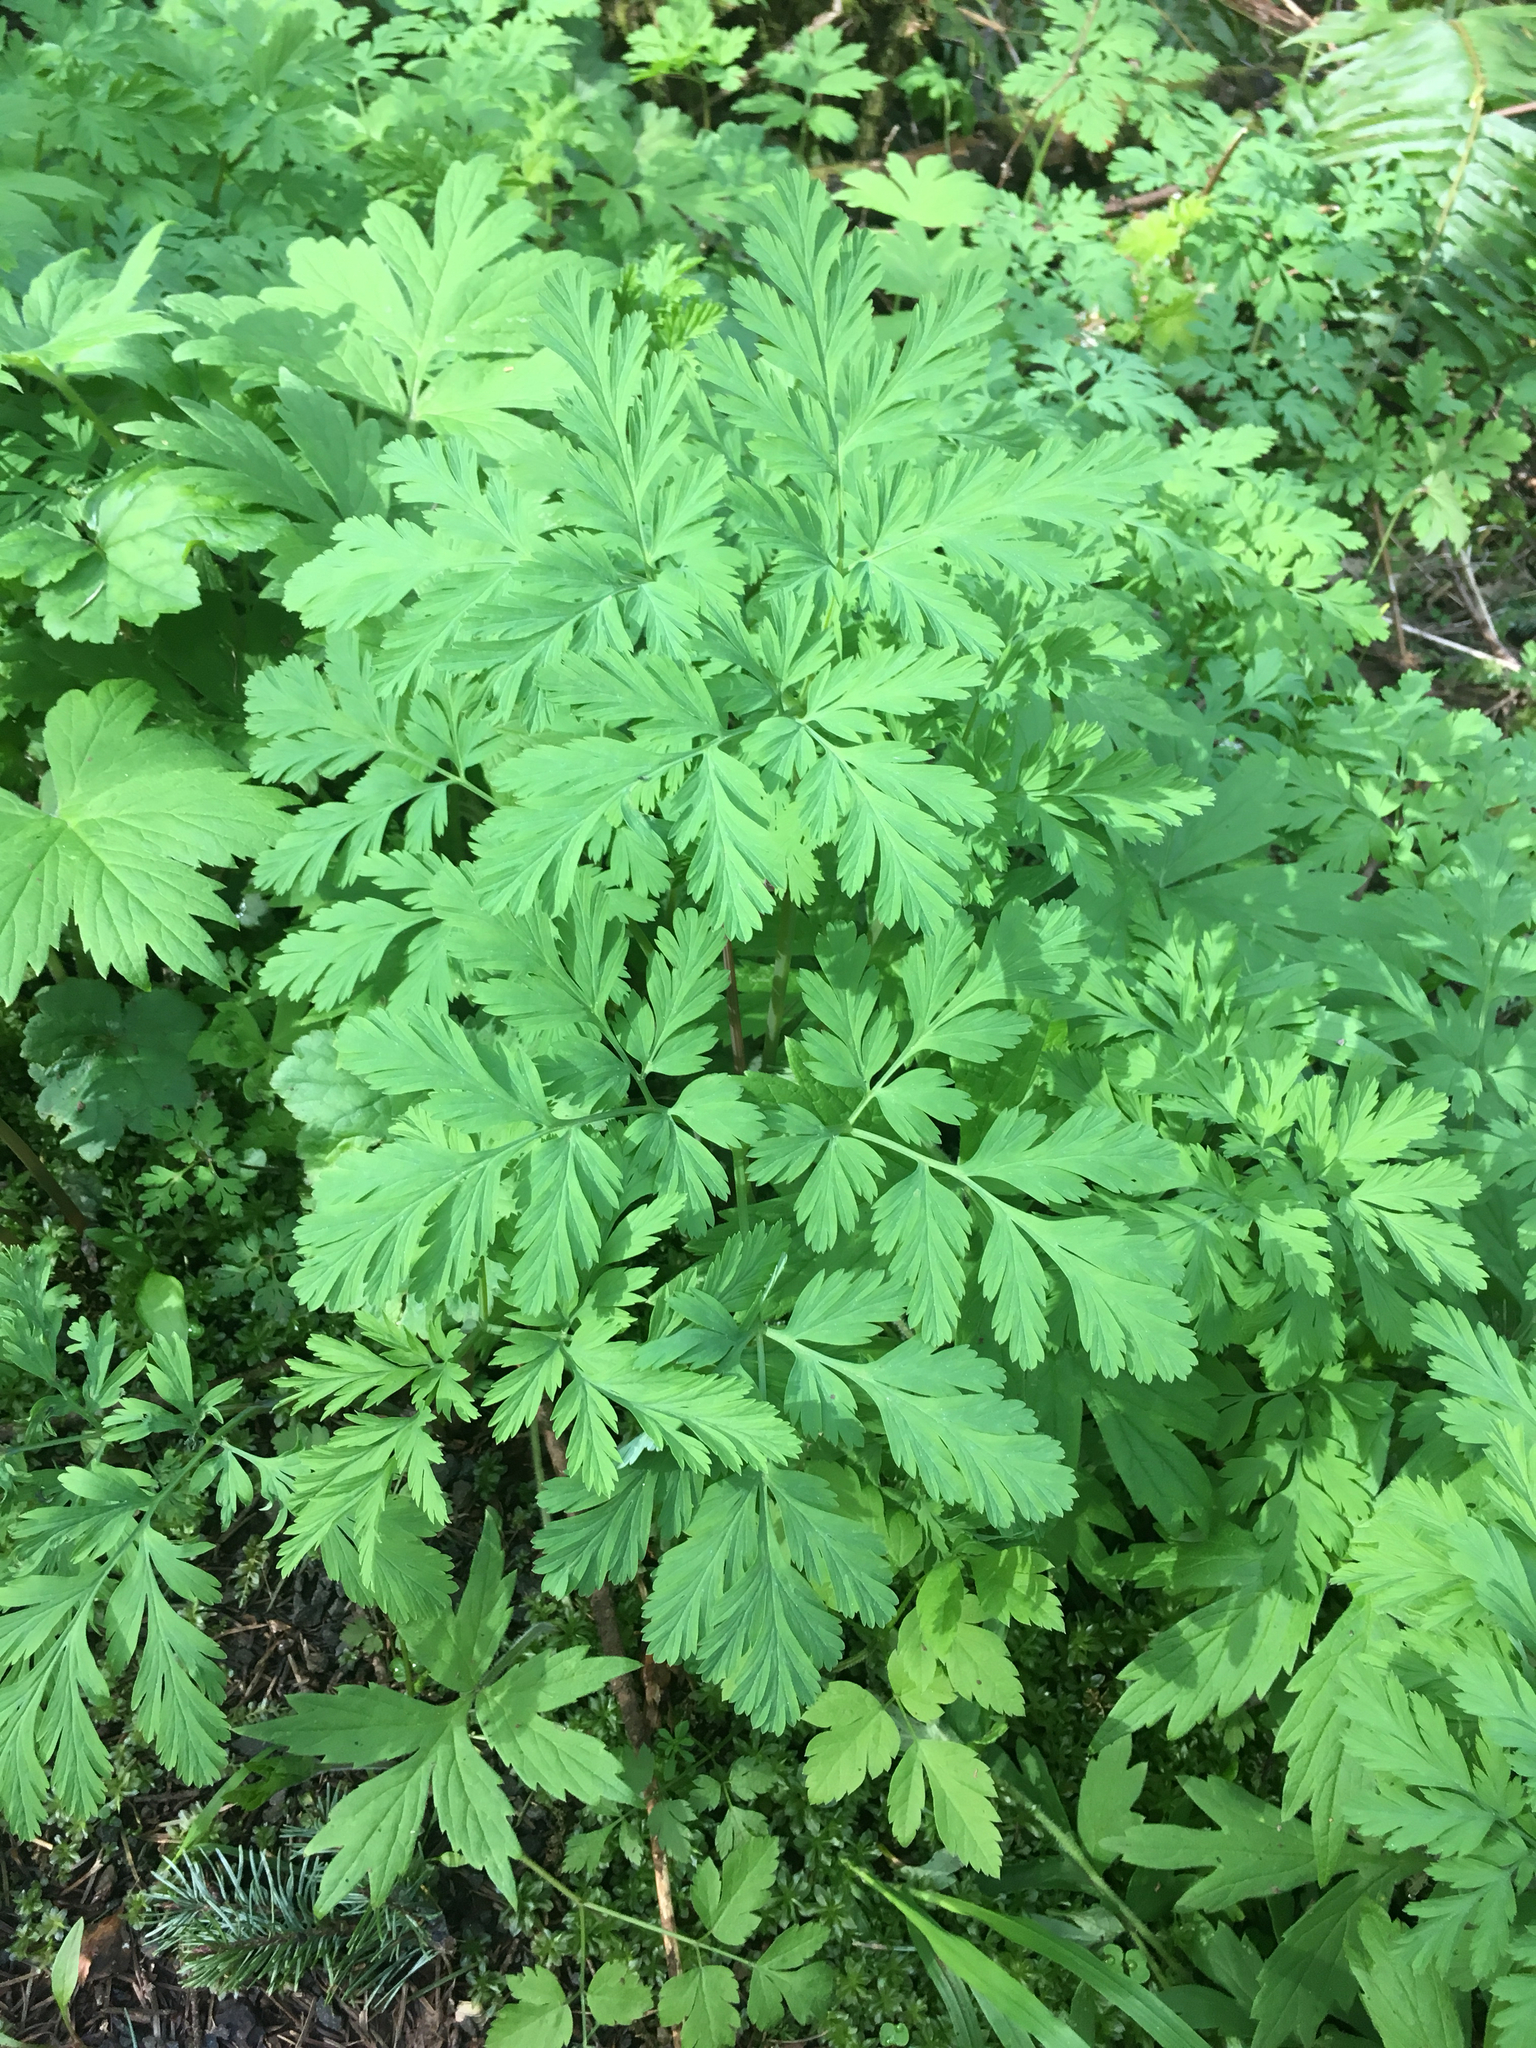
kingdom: Plantae
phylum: Tracheophyta
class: Magnoliopsida
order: Ranunculales
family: Papaveraceae
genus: Dicentra
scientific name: Dicentra formosa
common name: Bleeding-heart
